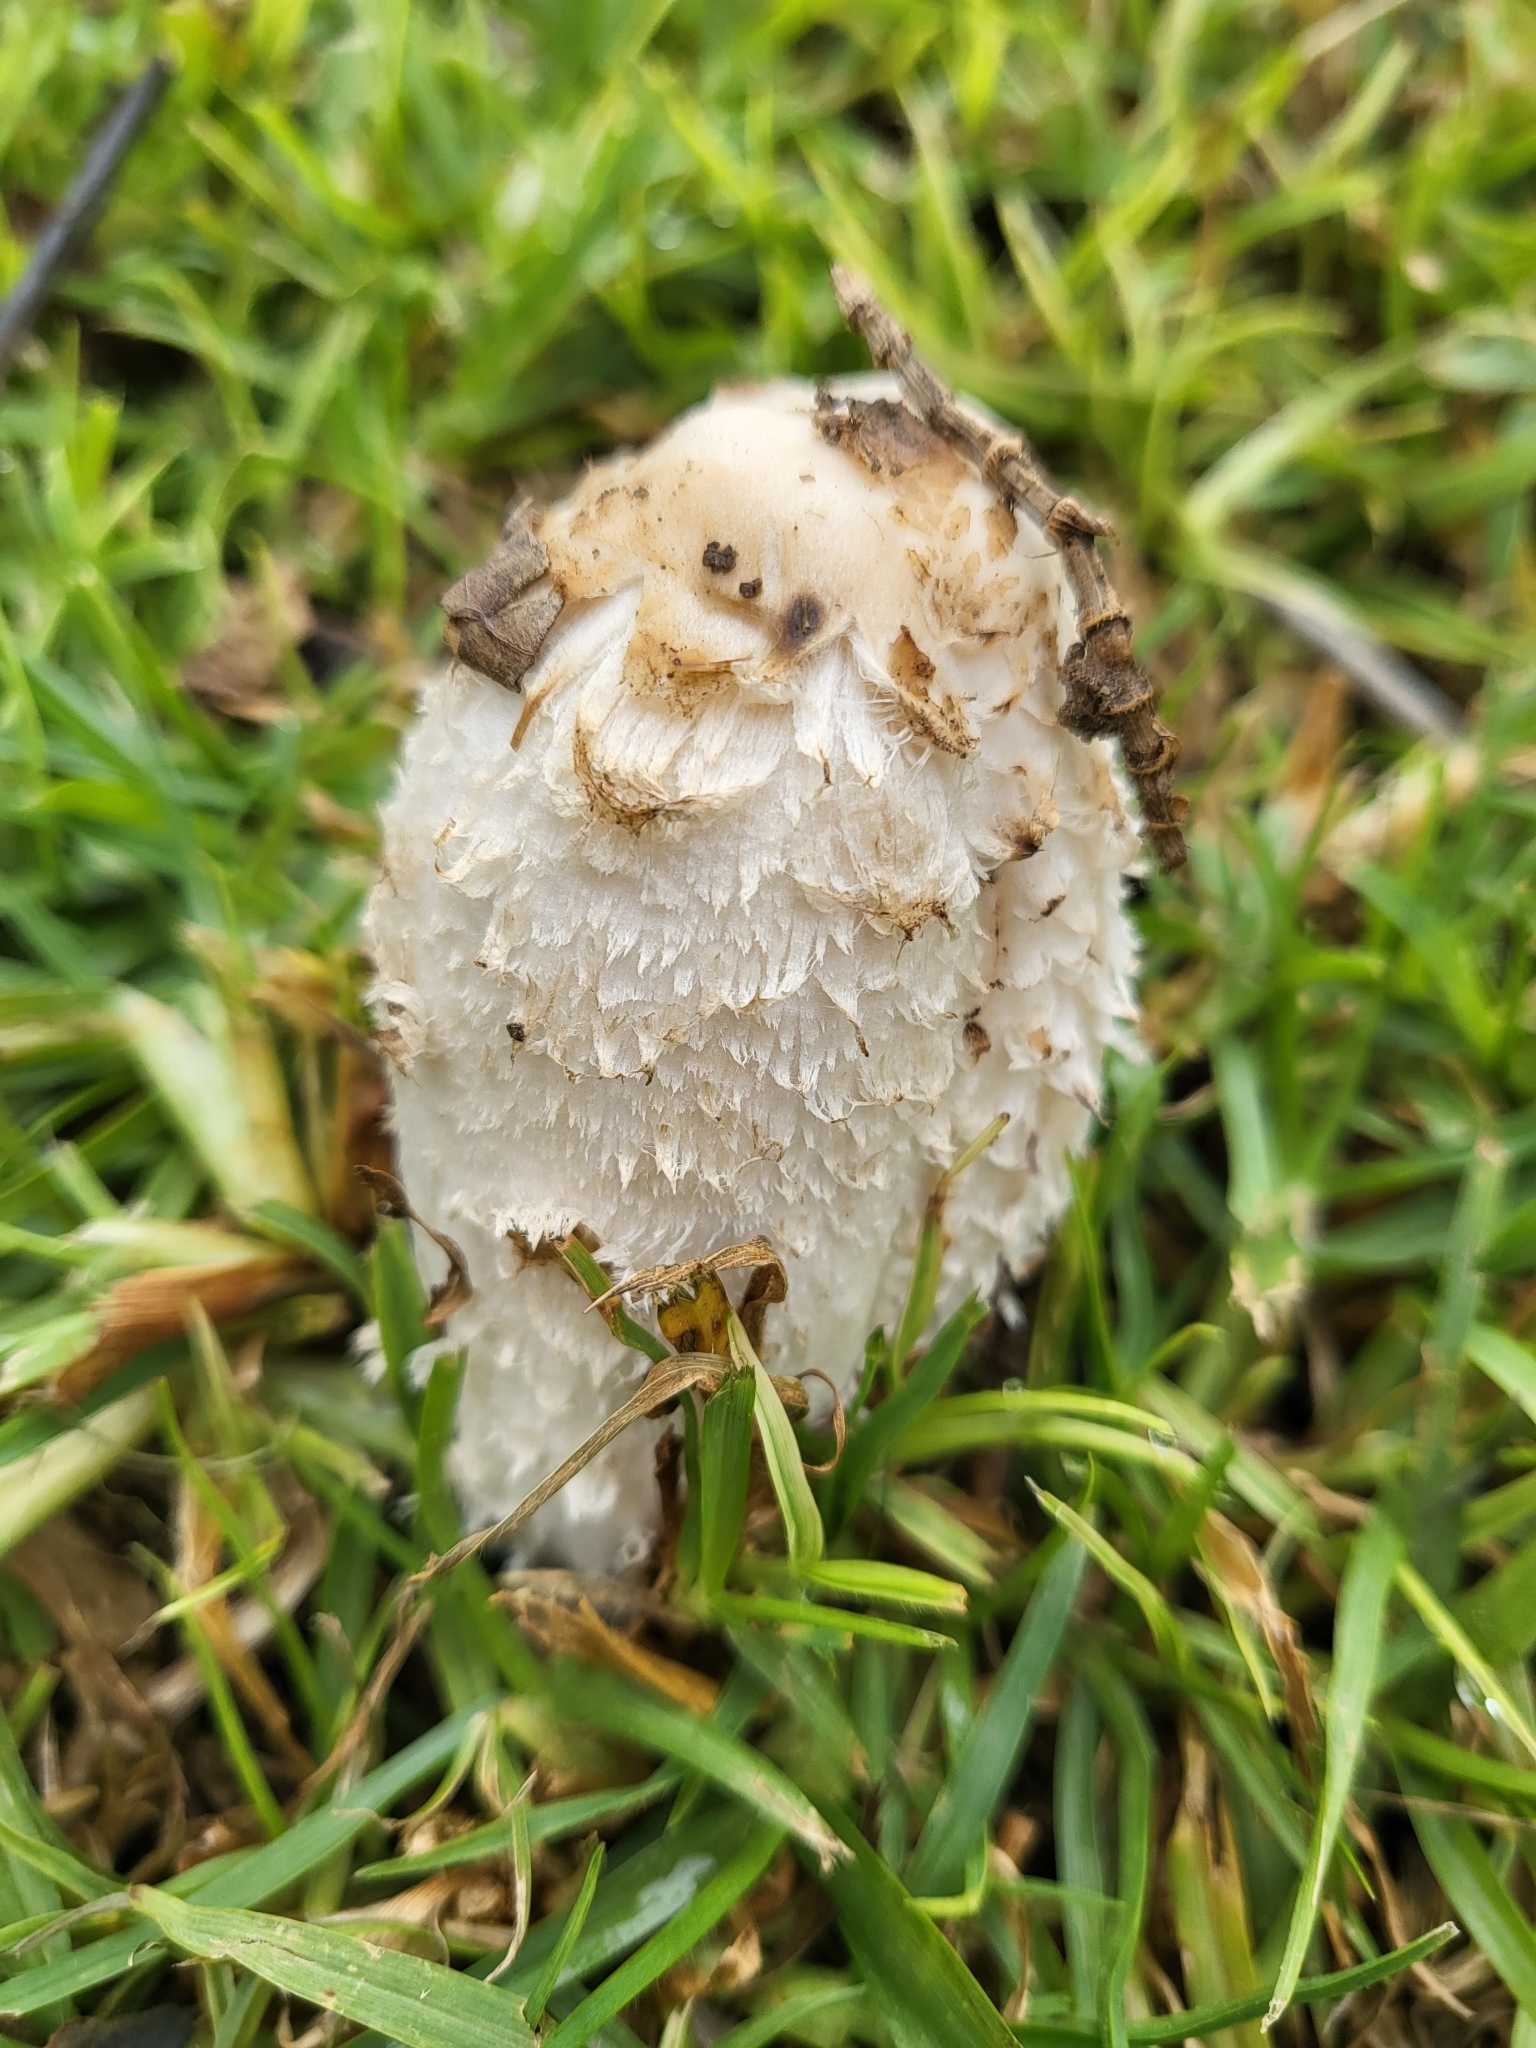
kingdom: Fungi
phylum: Basidiomycota
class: Agaricomycetes
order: Agaricales
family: Agaricaceae
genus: Coprinus
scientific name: Coprinus comatus
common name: Lawyer's wig
